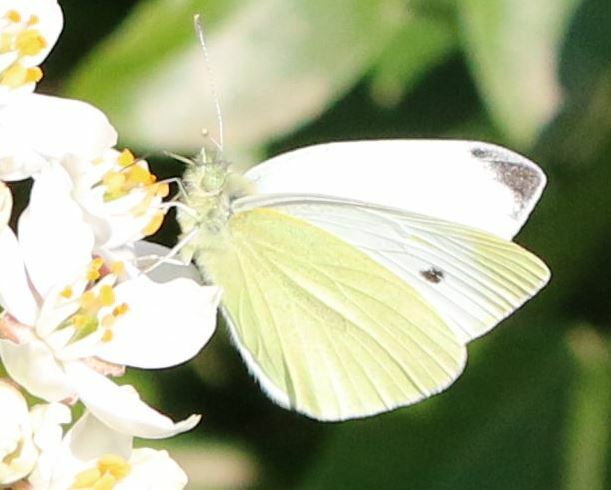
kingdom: Animalia
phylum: Arthropoda
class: Insecta
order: Lepidoptera
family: Pieridae
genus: Pieris
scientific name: Pieris rapae
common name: Small white
